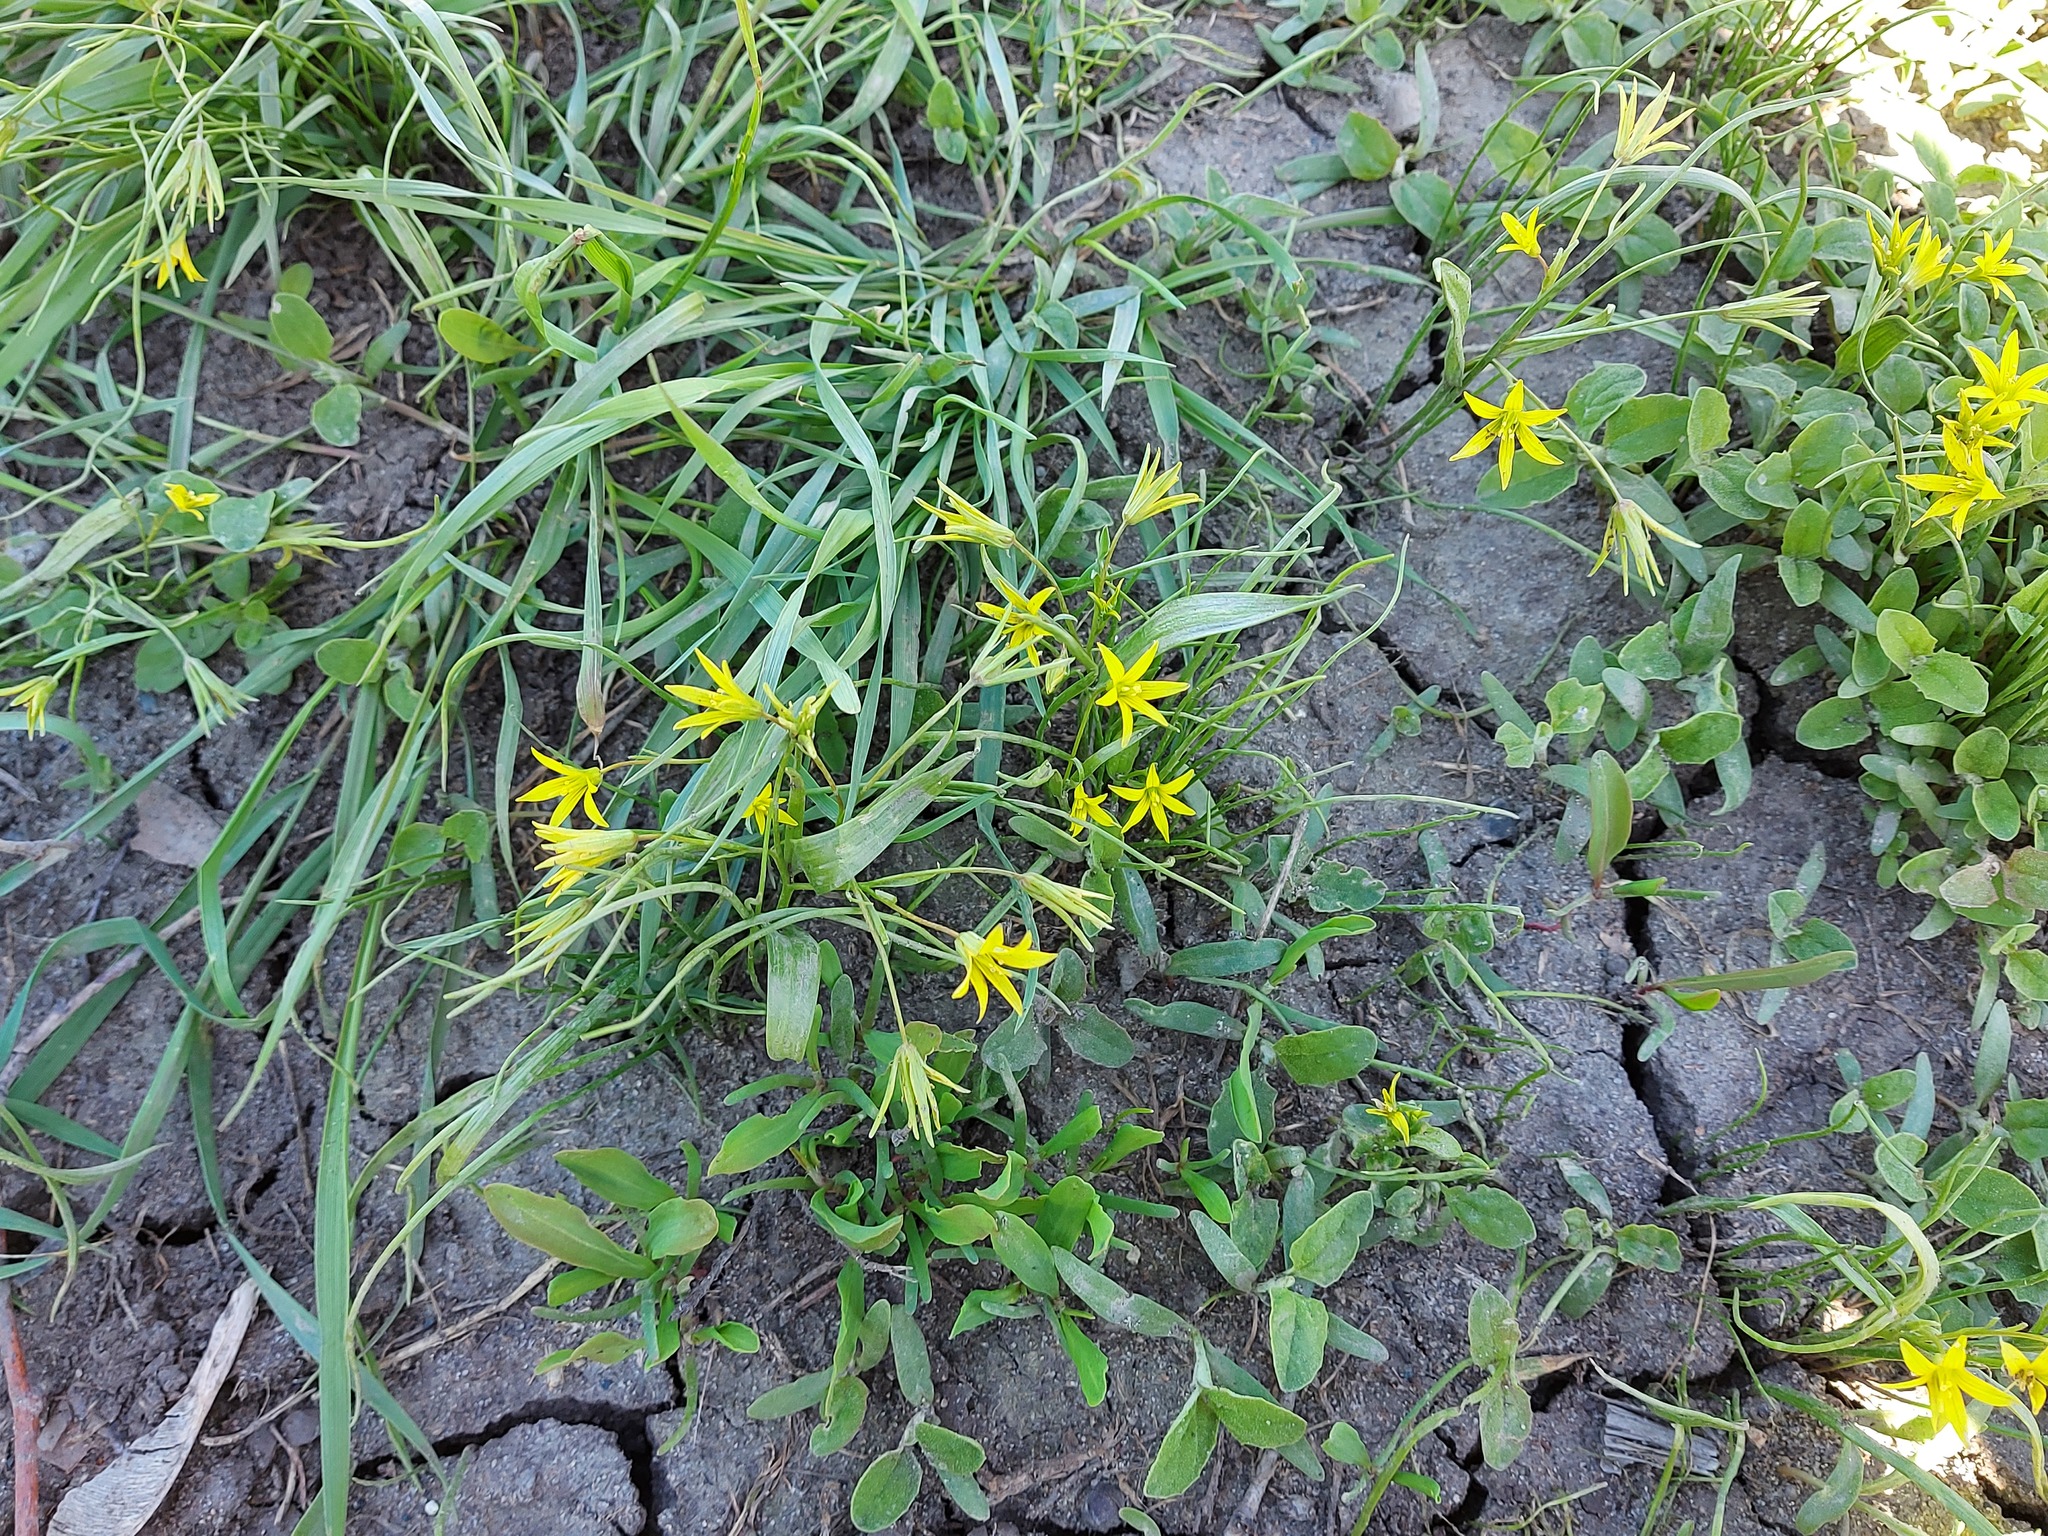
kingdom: Plantae
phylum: Tracheophyta
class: Liliopsida
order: Liliales
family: Liliaceae
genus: Gagea
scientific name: Gagea minima
